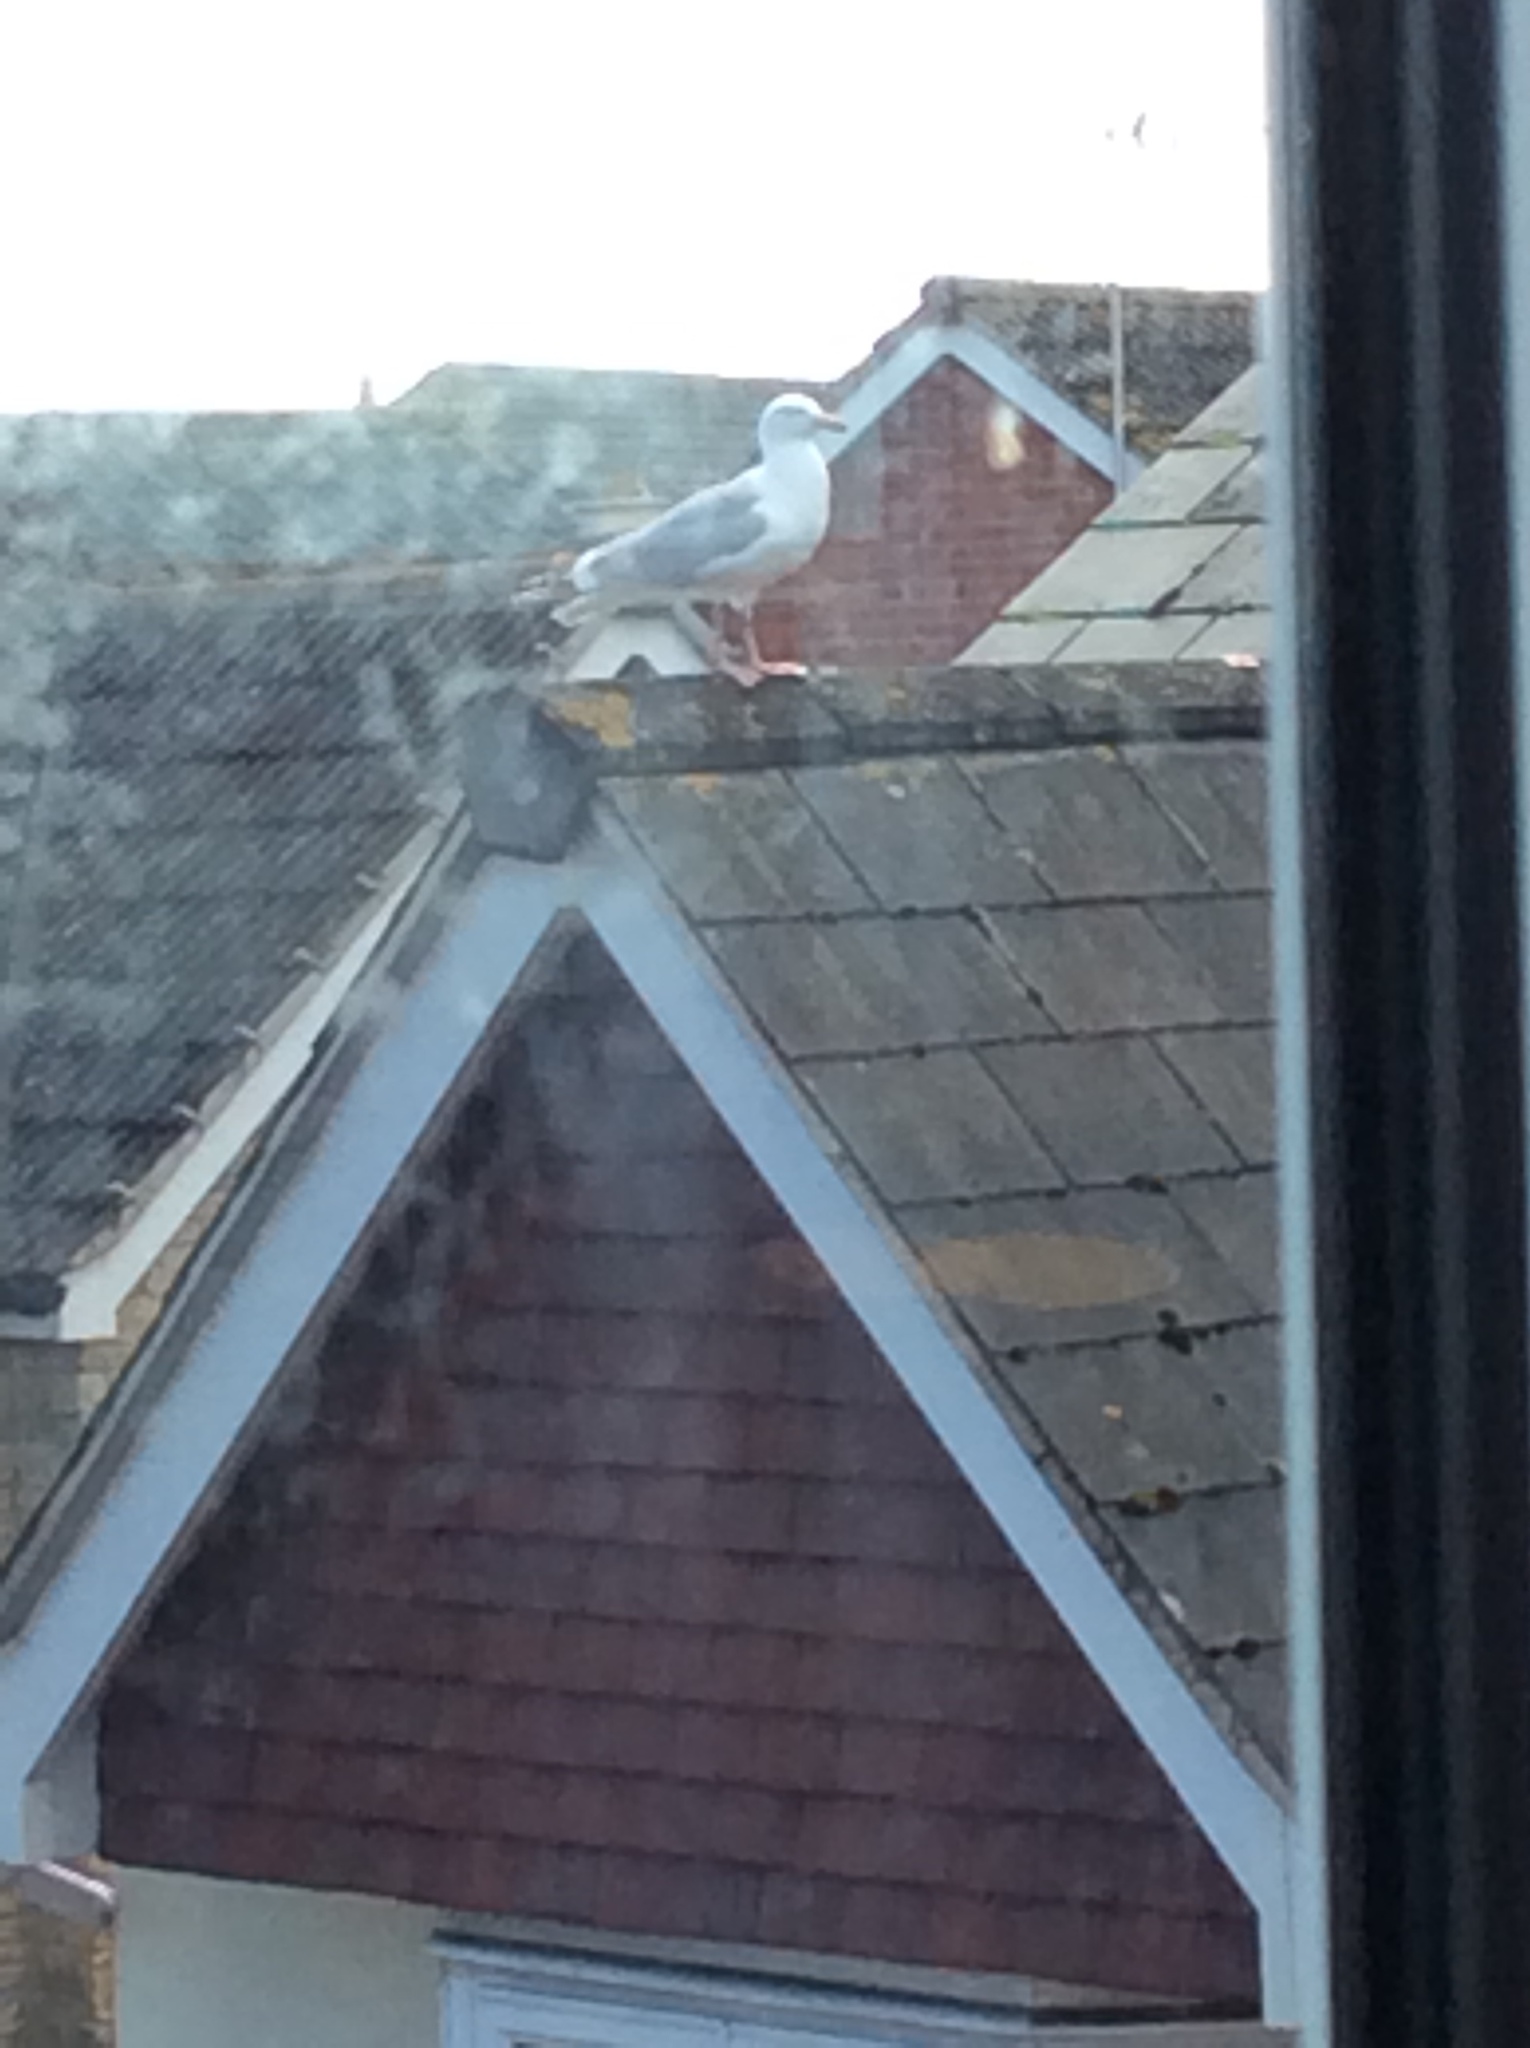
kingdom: Animalia
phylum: Chordata
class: Aves
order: Charadriiformes
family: Laridae
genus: Larus
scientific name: Larus argentatus
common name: Herring gull
